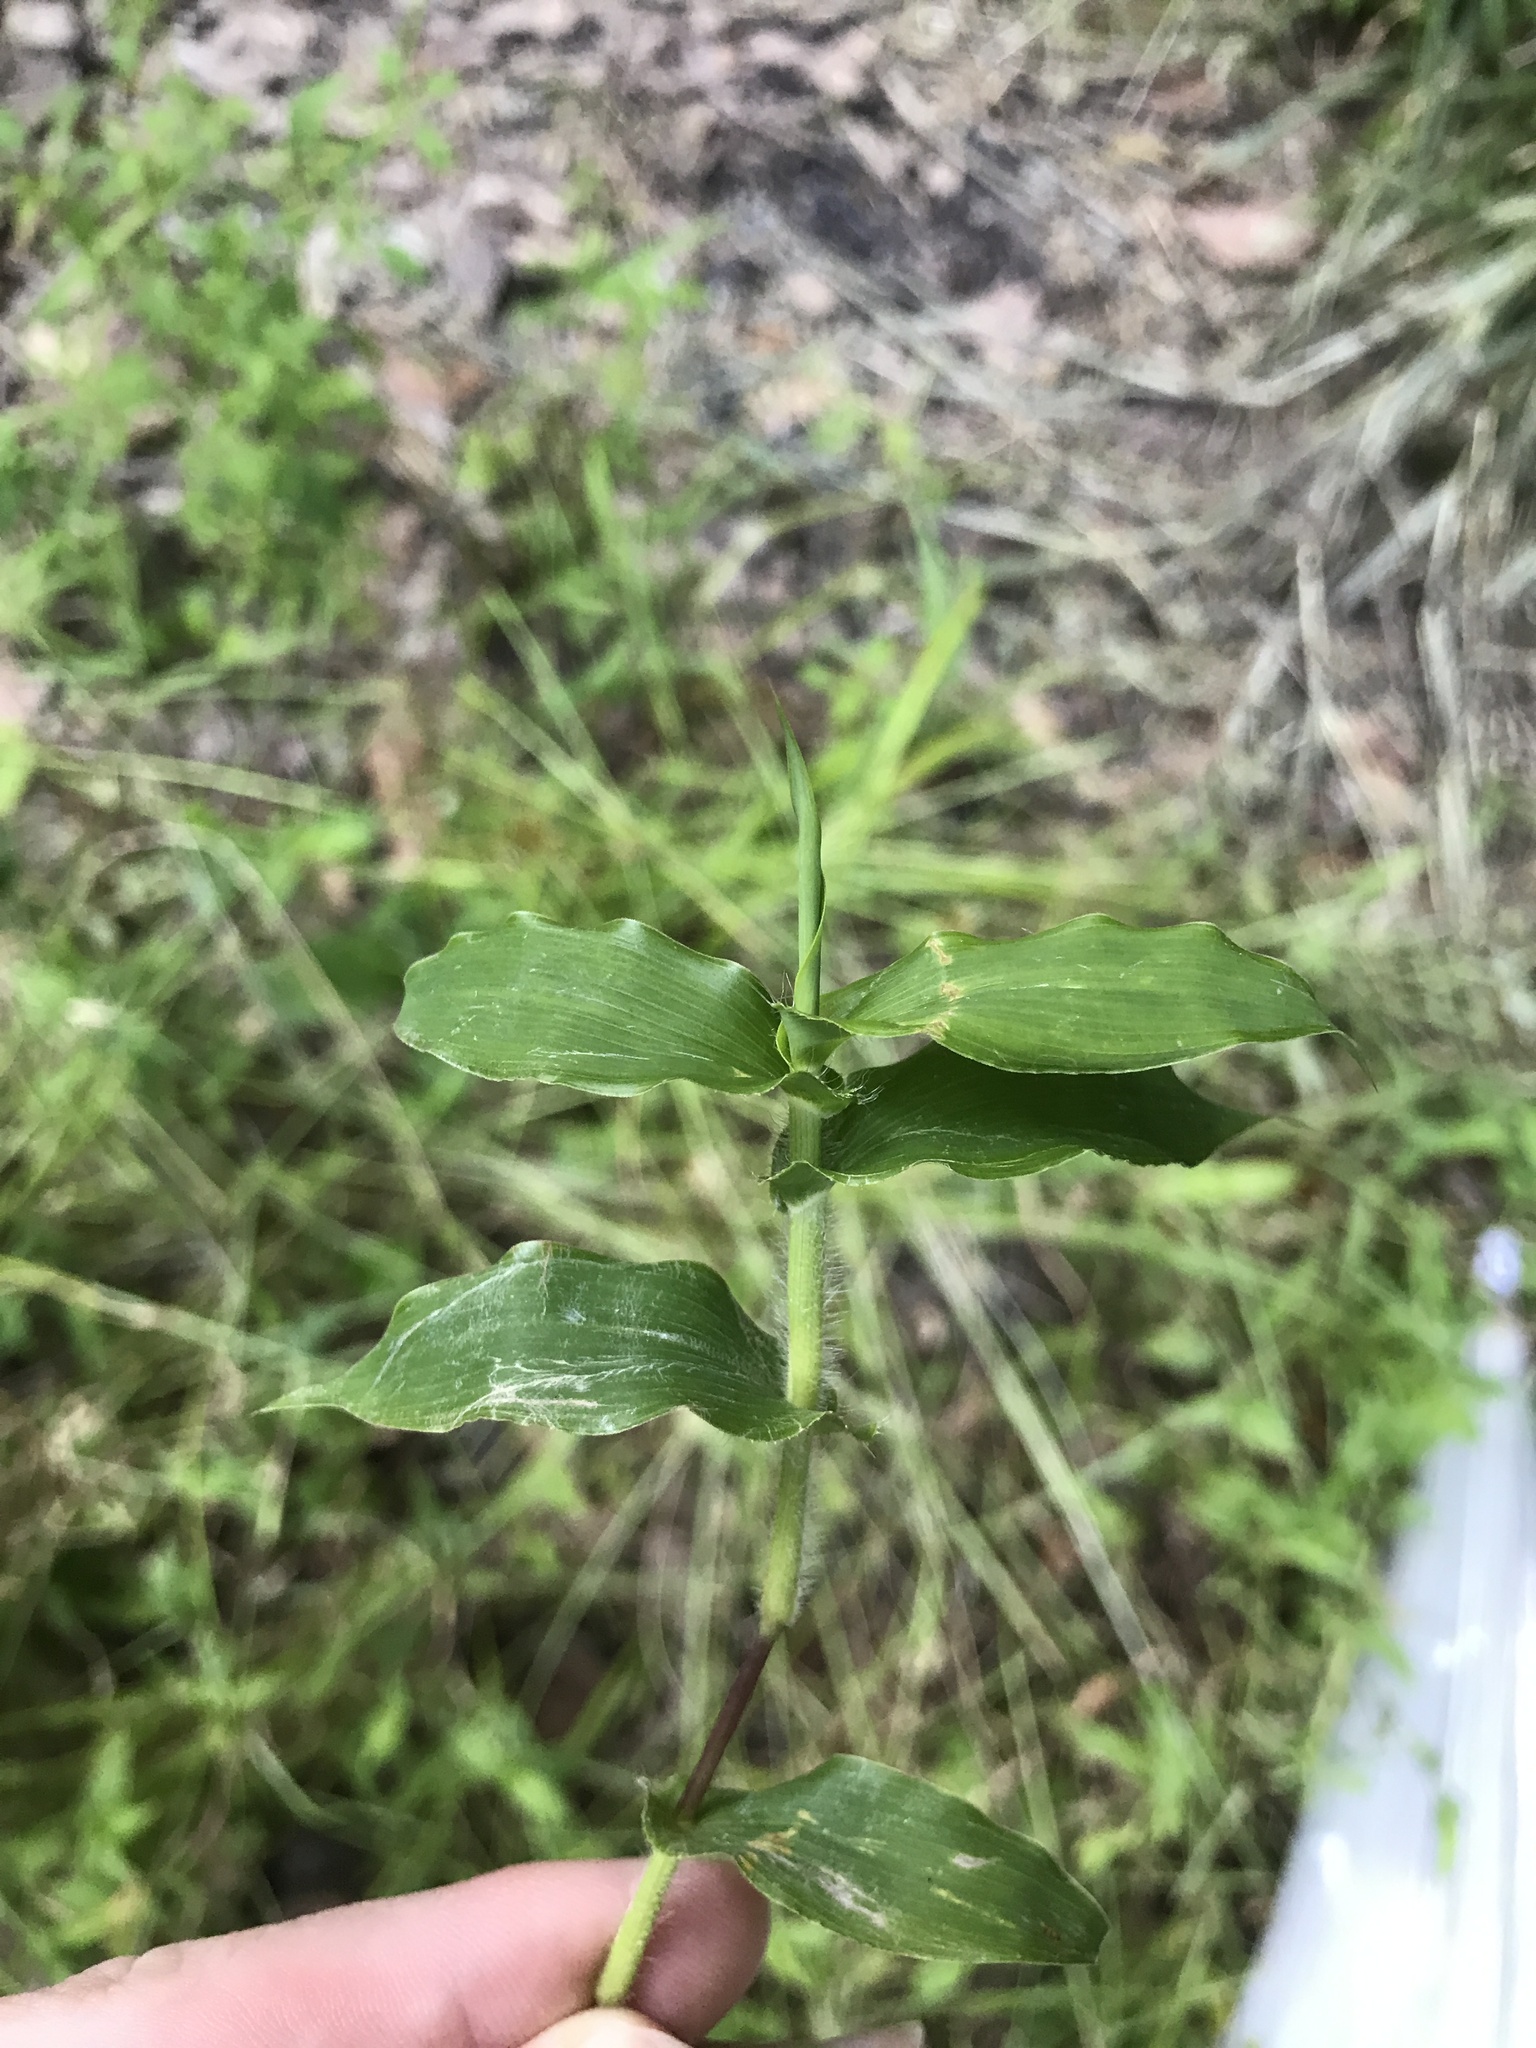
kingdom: Plantae
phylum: Tracheophyta
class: Liliopsida
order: Poales
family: Poaceae
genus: Arthraxon
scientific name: Arthraxon hispidus
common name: Small carpgrass
